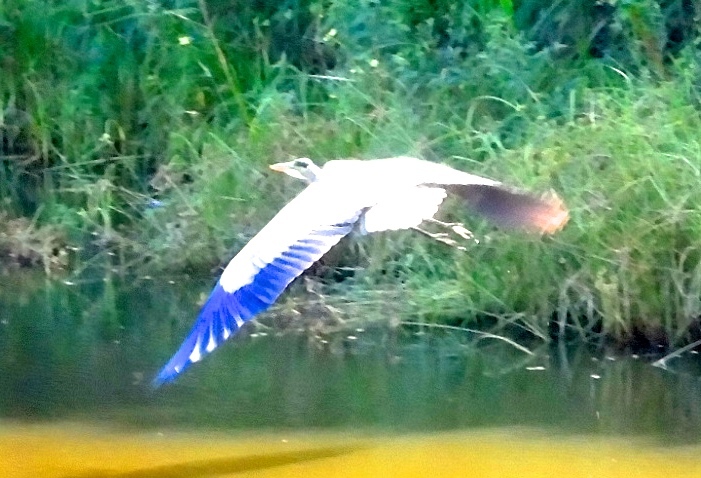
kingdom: Animalia
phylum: Chordata
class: Aves
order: Pelecaniformes
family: Ardeidae
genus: Ardea
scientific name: Ardea herodias
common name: Great blue heron
